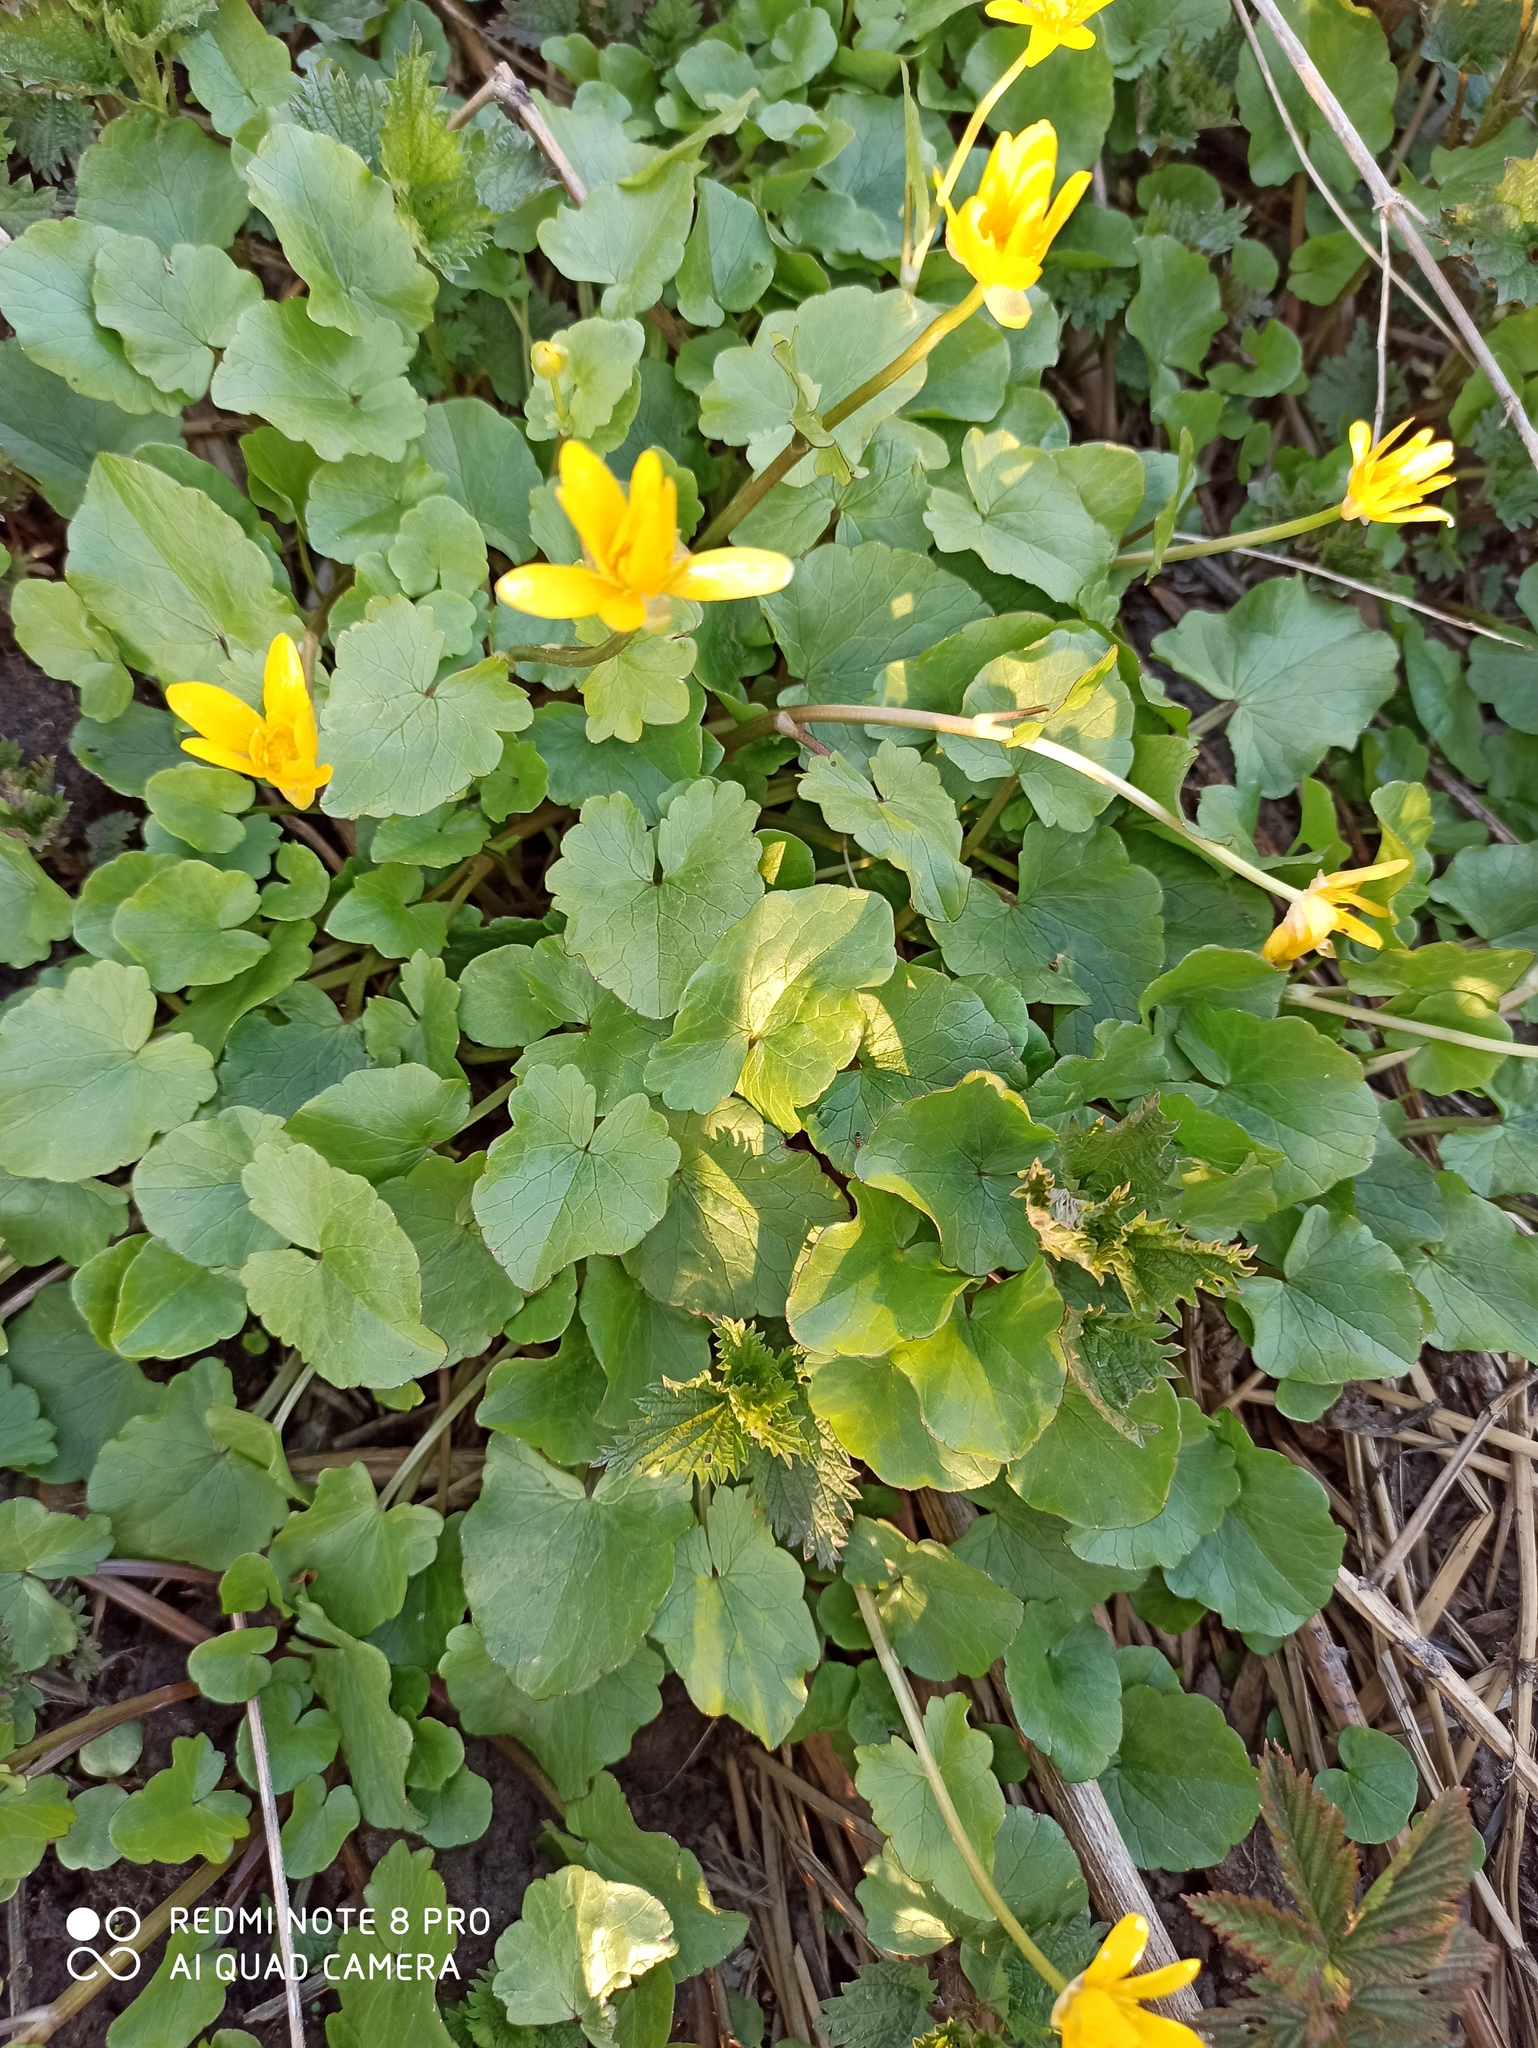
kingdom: Plantae
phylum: Tracheophyta
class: Magnoliopsida
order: Ranunculales
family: Ranunculaceae
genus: Ficaria
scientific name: Ficaria verna
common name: Lesser celandine
